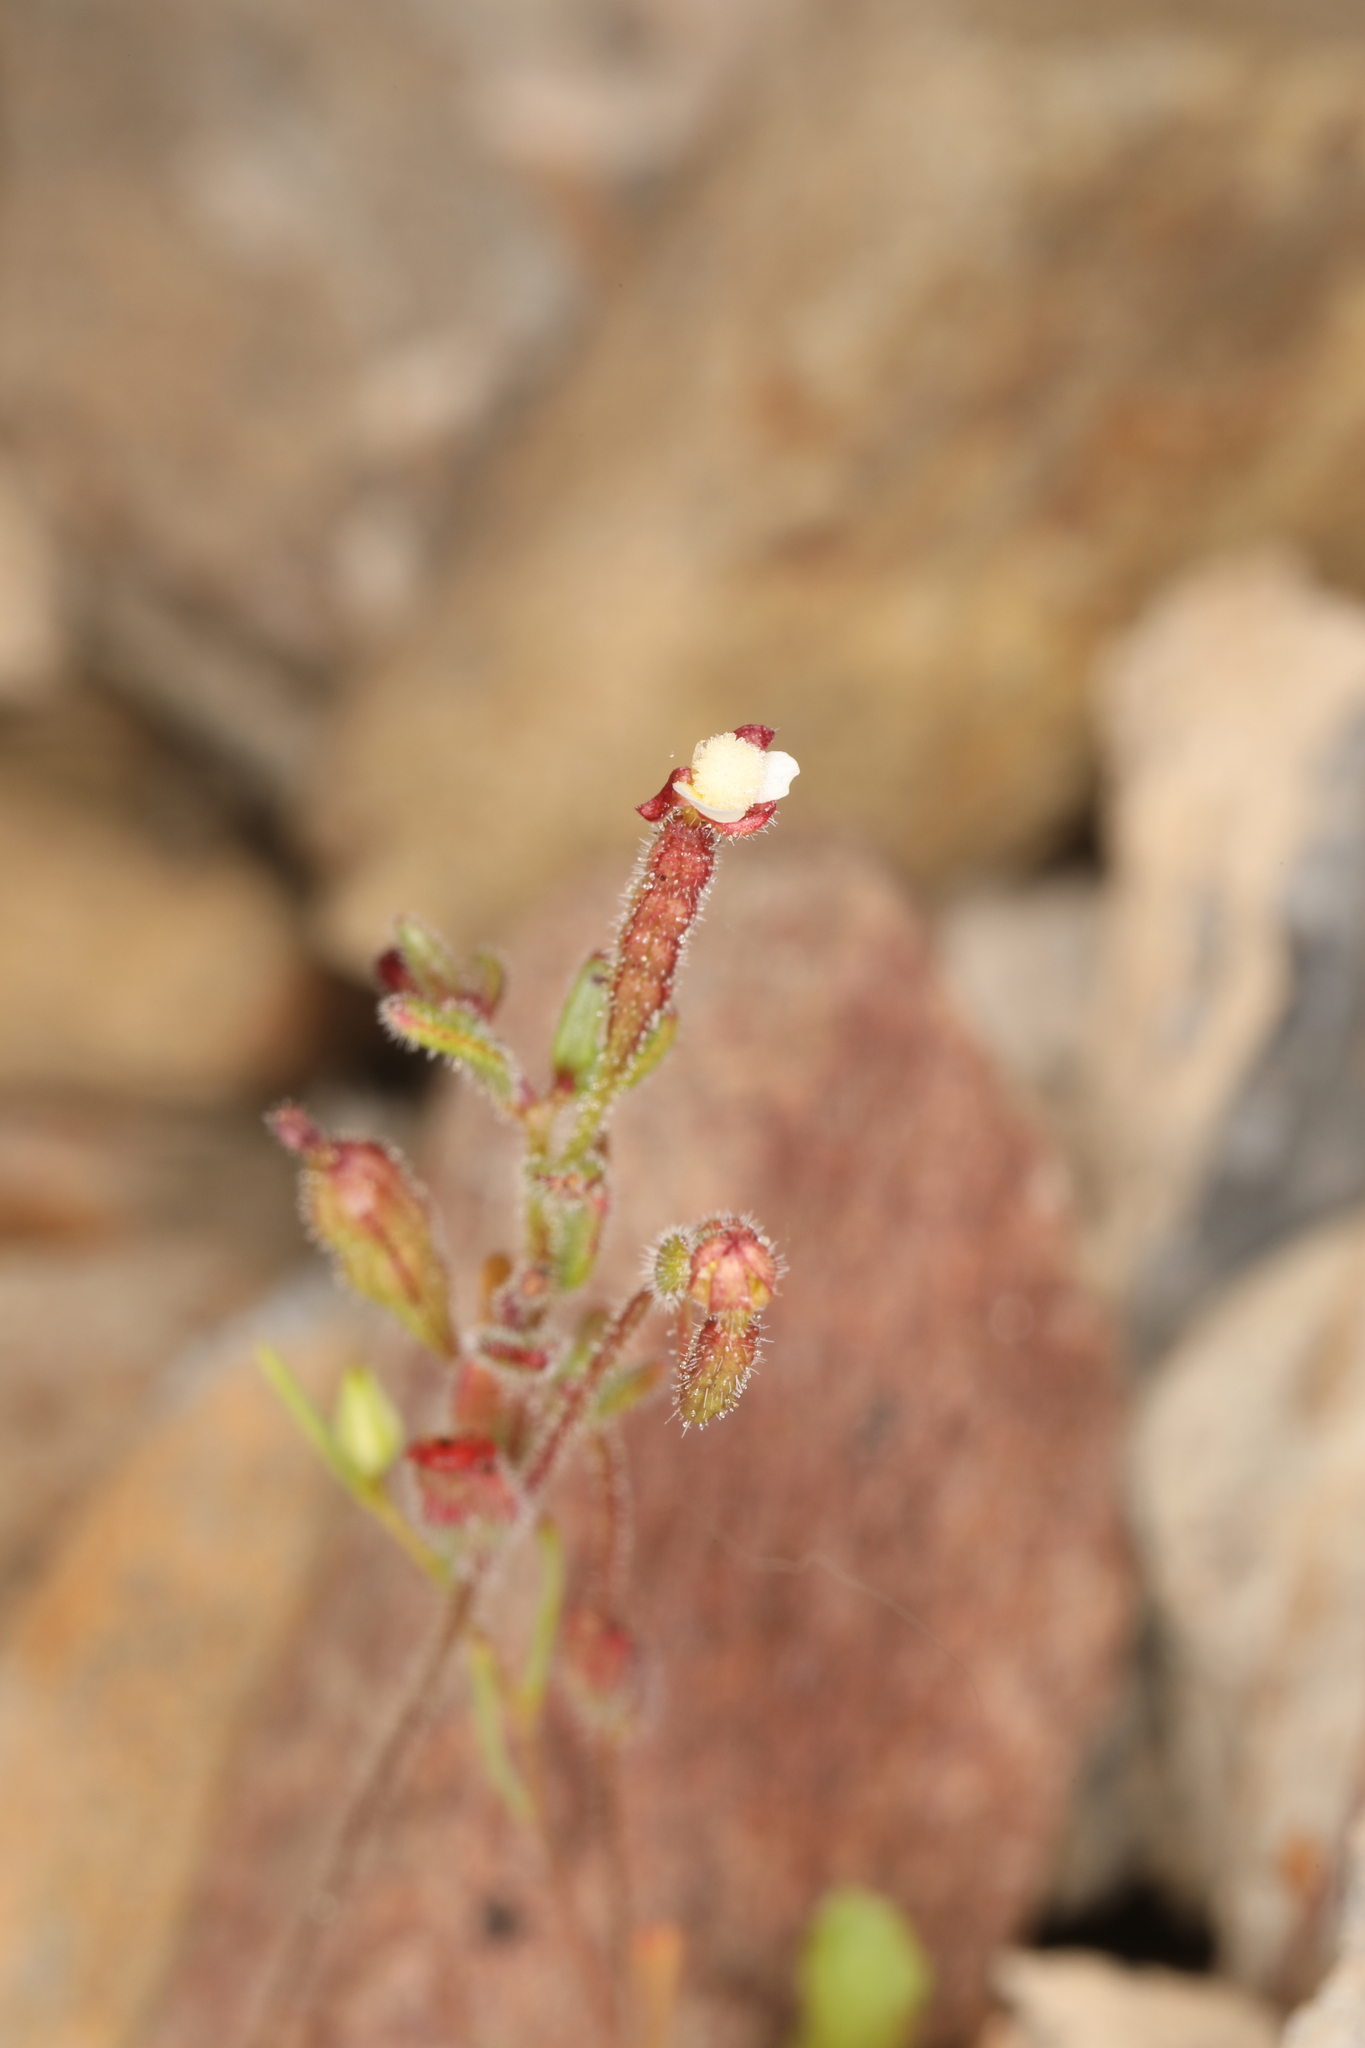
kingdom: Plantae
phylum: Tracheophyta
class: Magnoliopsida
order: Myrtales
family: Onagraceae
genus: Chylismiella
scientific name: Chylismiella pterosperma
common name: Wingfruit suncup
